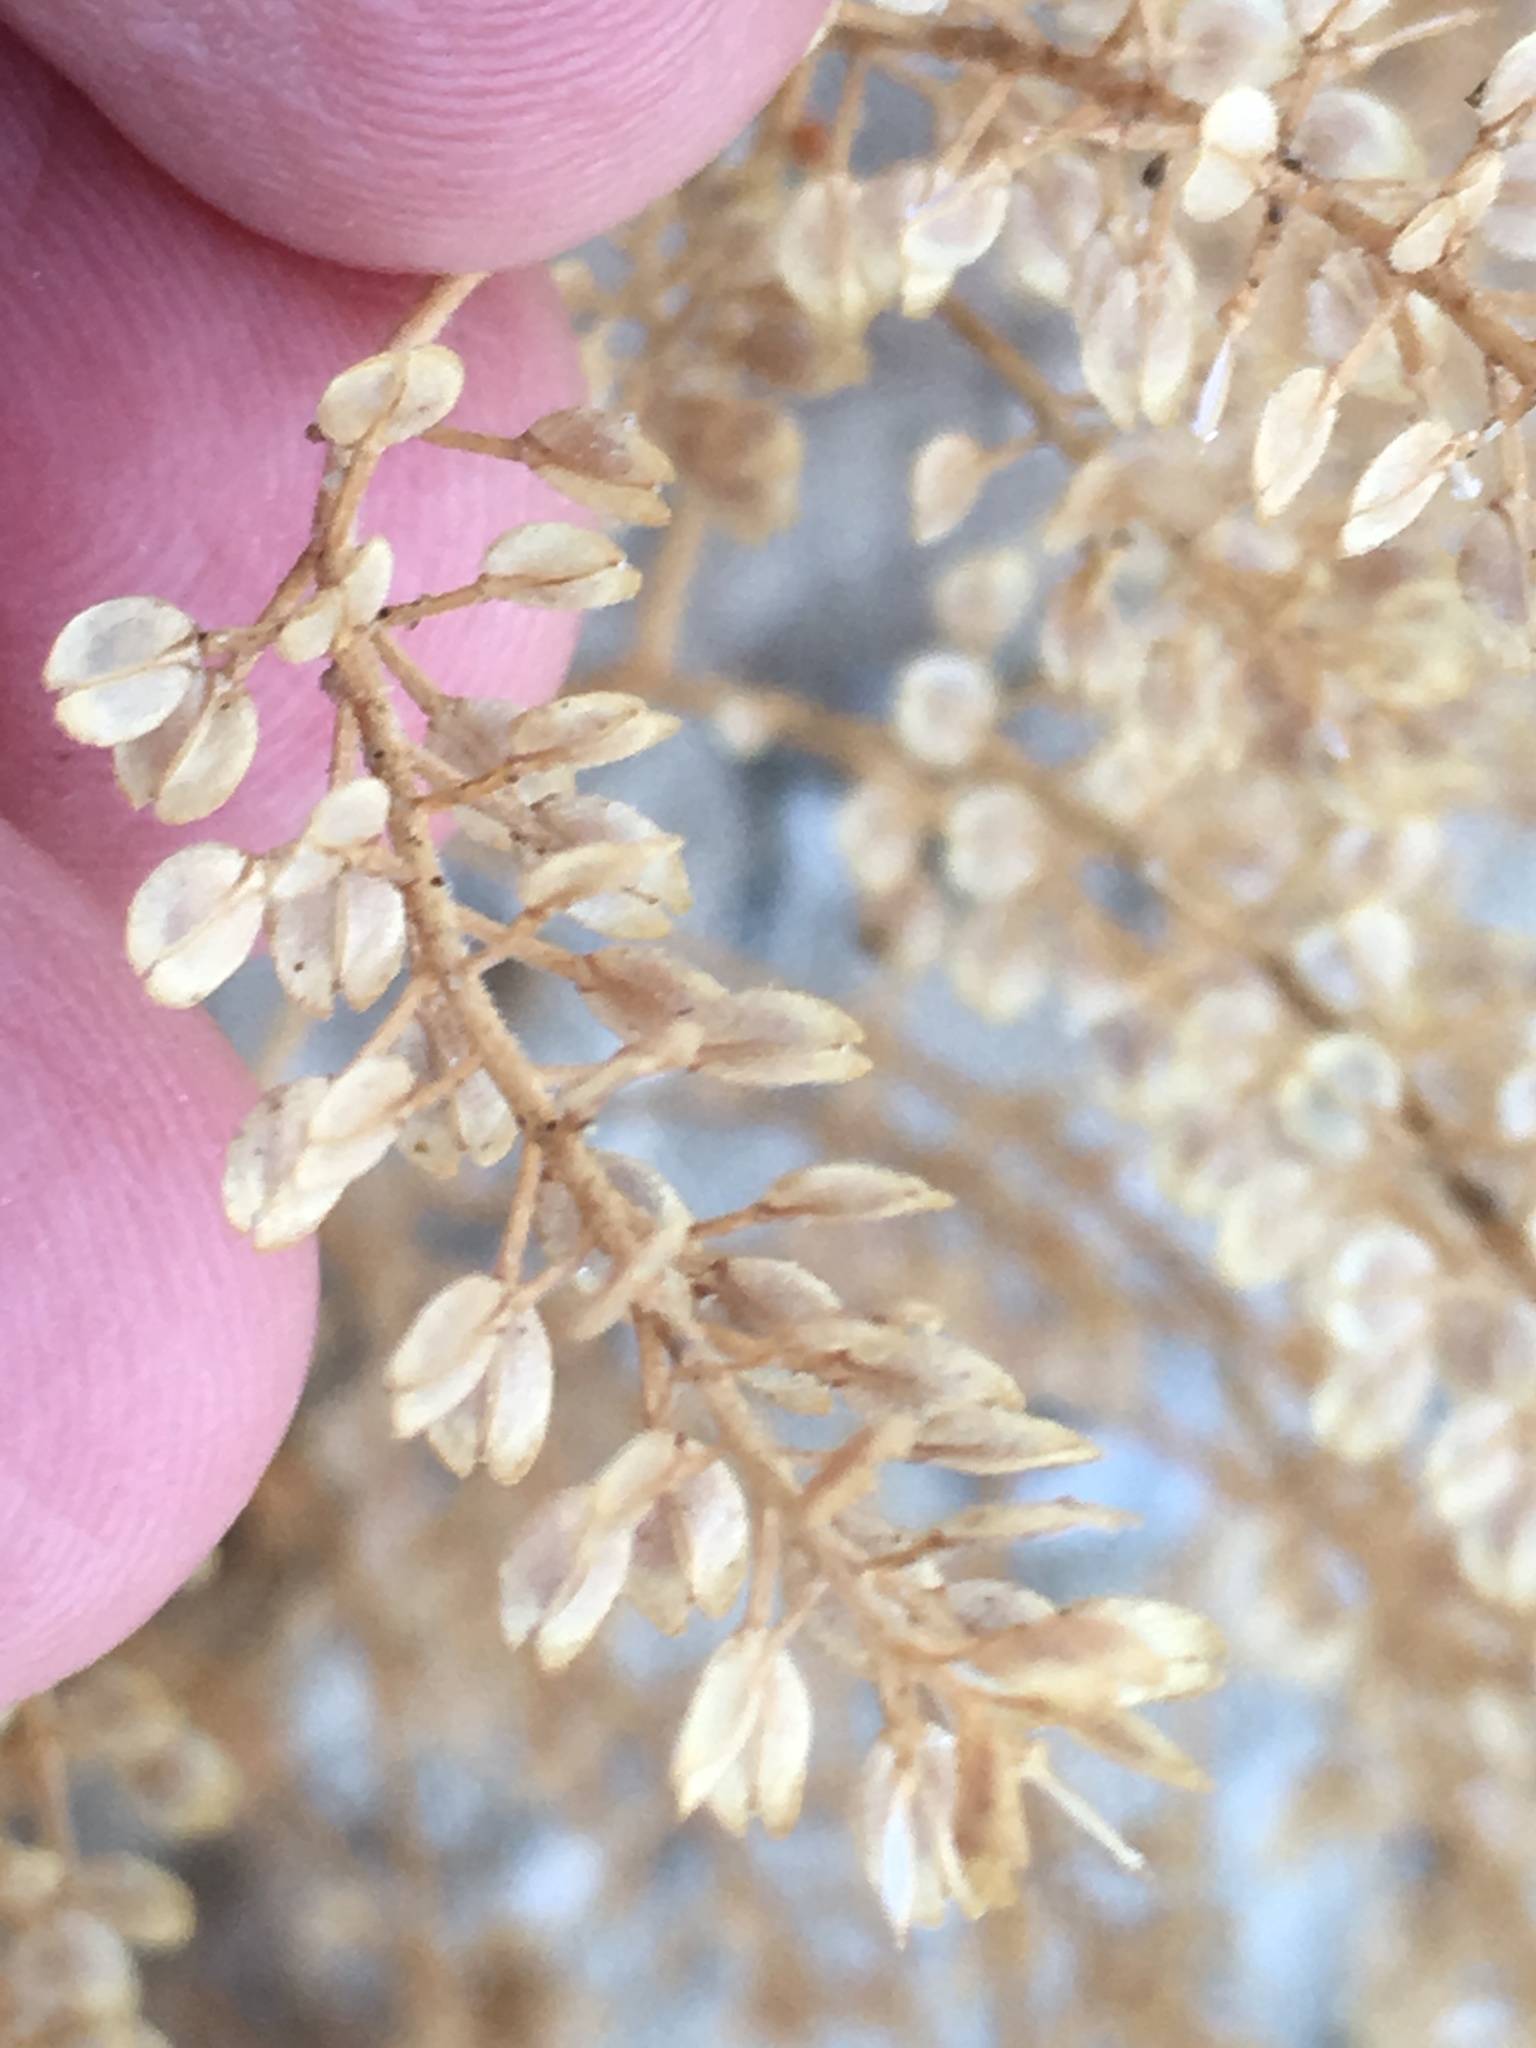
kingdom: Plantae
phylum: Tracheophyta
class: Magnoliopsida
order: Brassicales
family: Brassicaceae
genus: Lepidium
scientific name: Lepidium lasiocarpum
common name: Hairy-pod pepperwort
